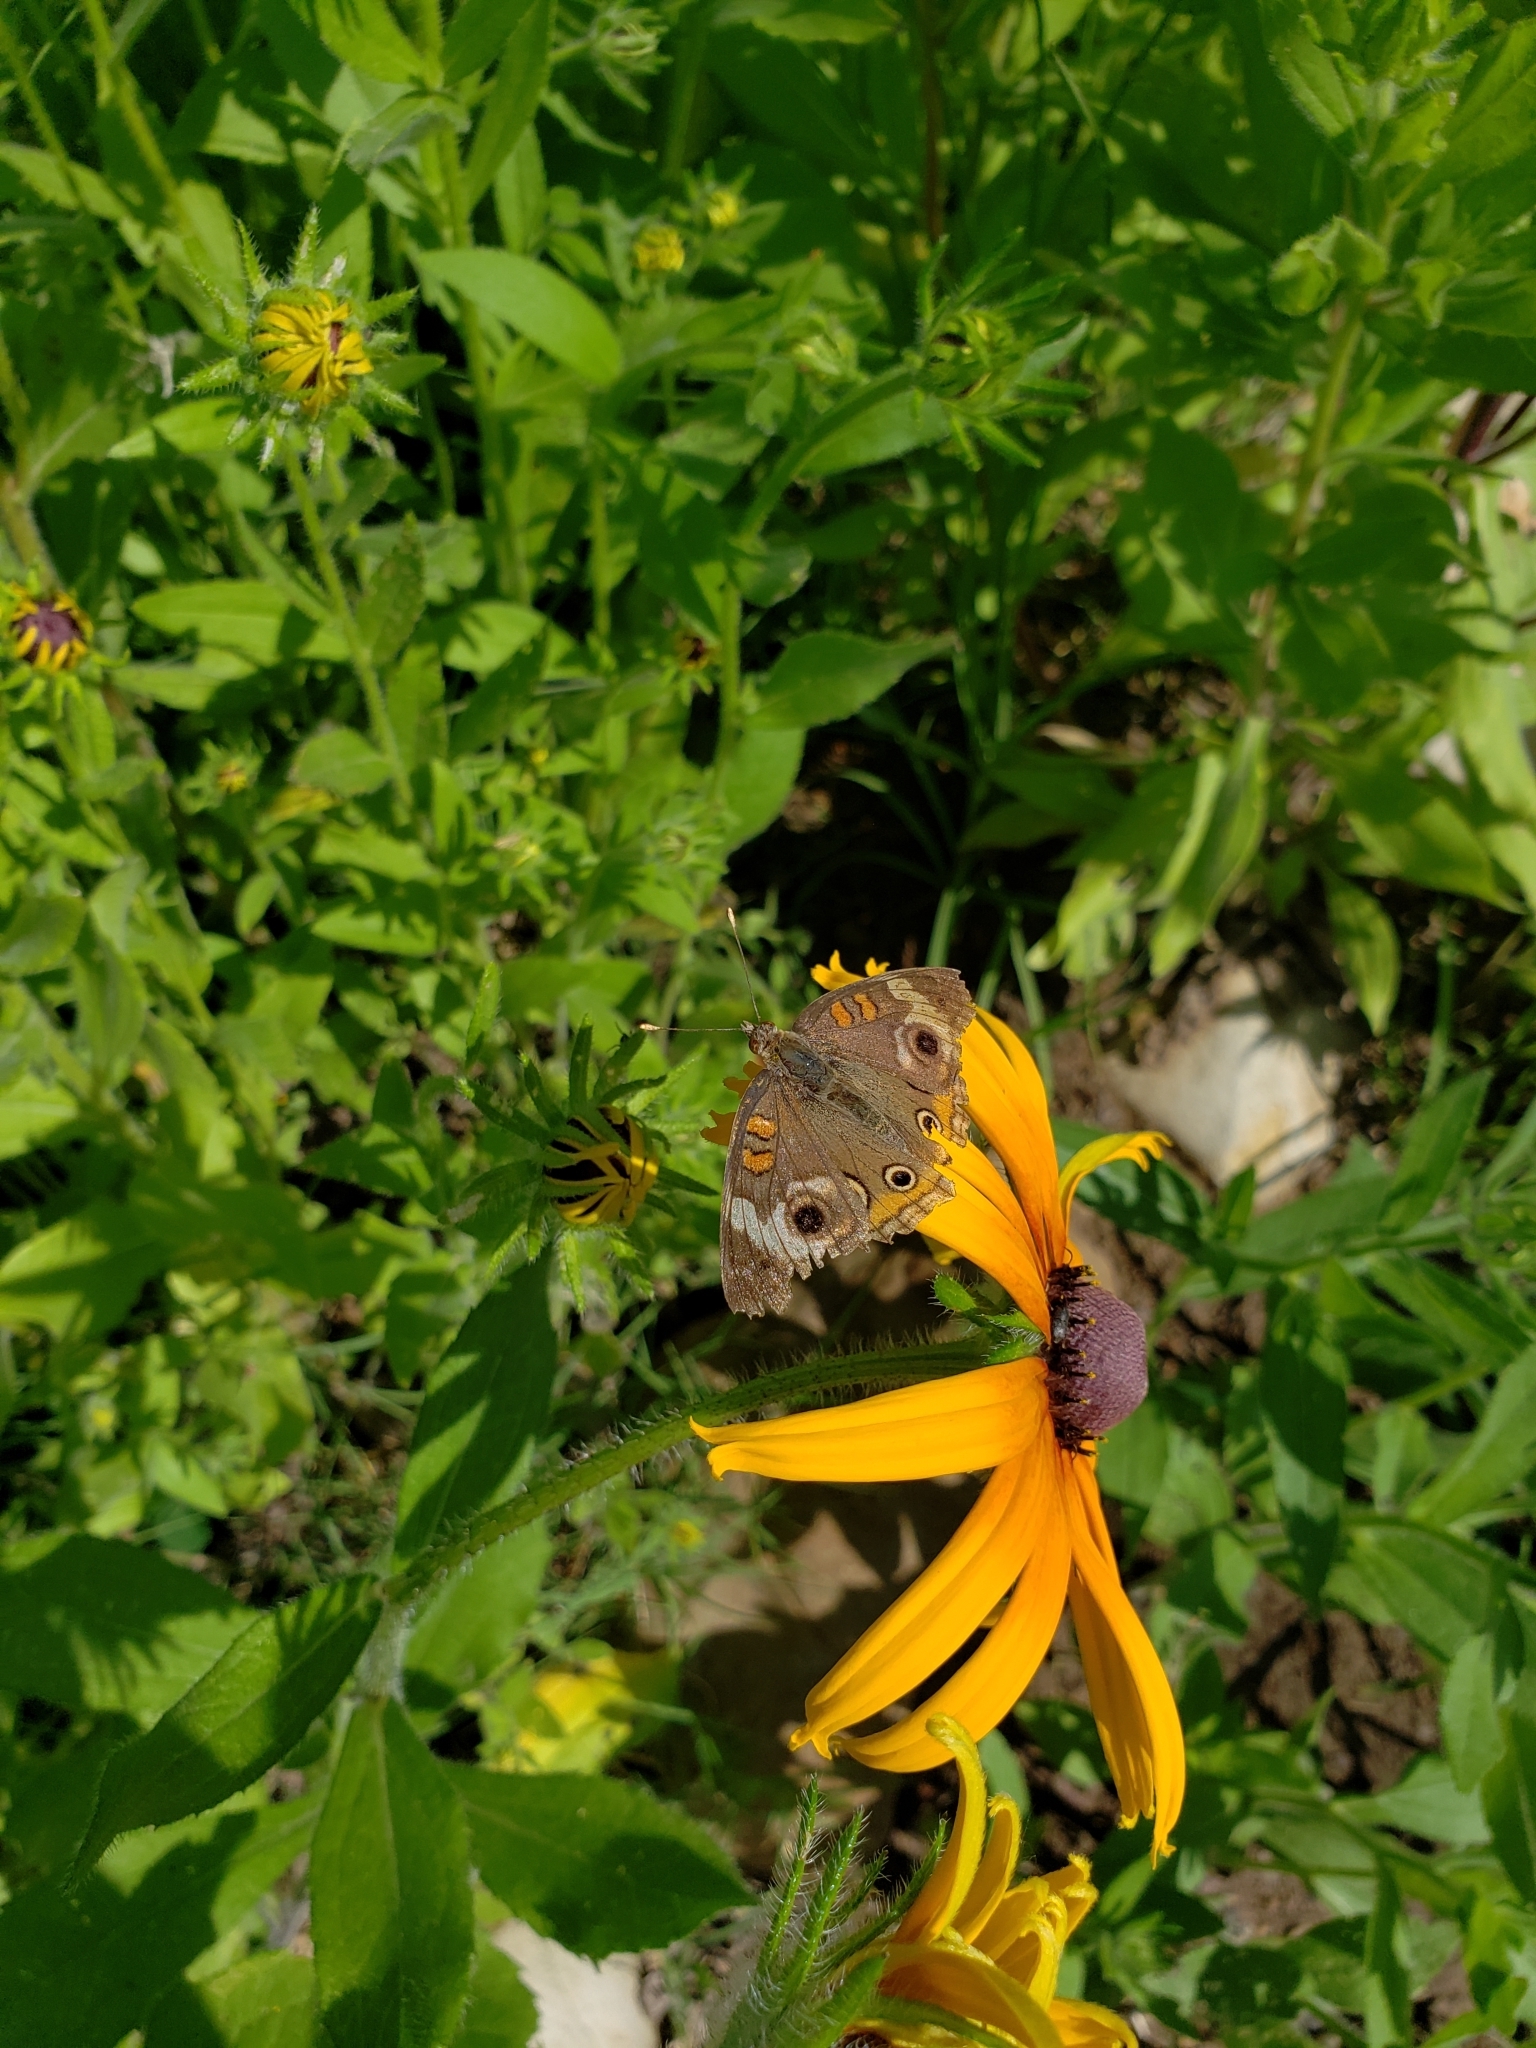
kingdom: Animalia
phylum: Arthropoda
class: Insecta
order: Lepidoptera
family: Nymphalidae
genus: Junonia
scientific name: Junonia coenia
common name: Common buckeye
